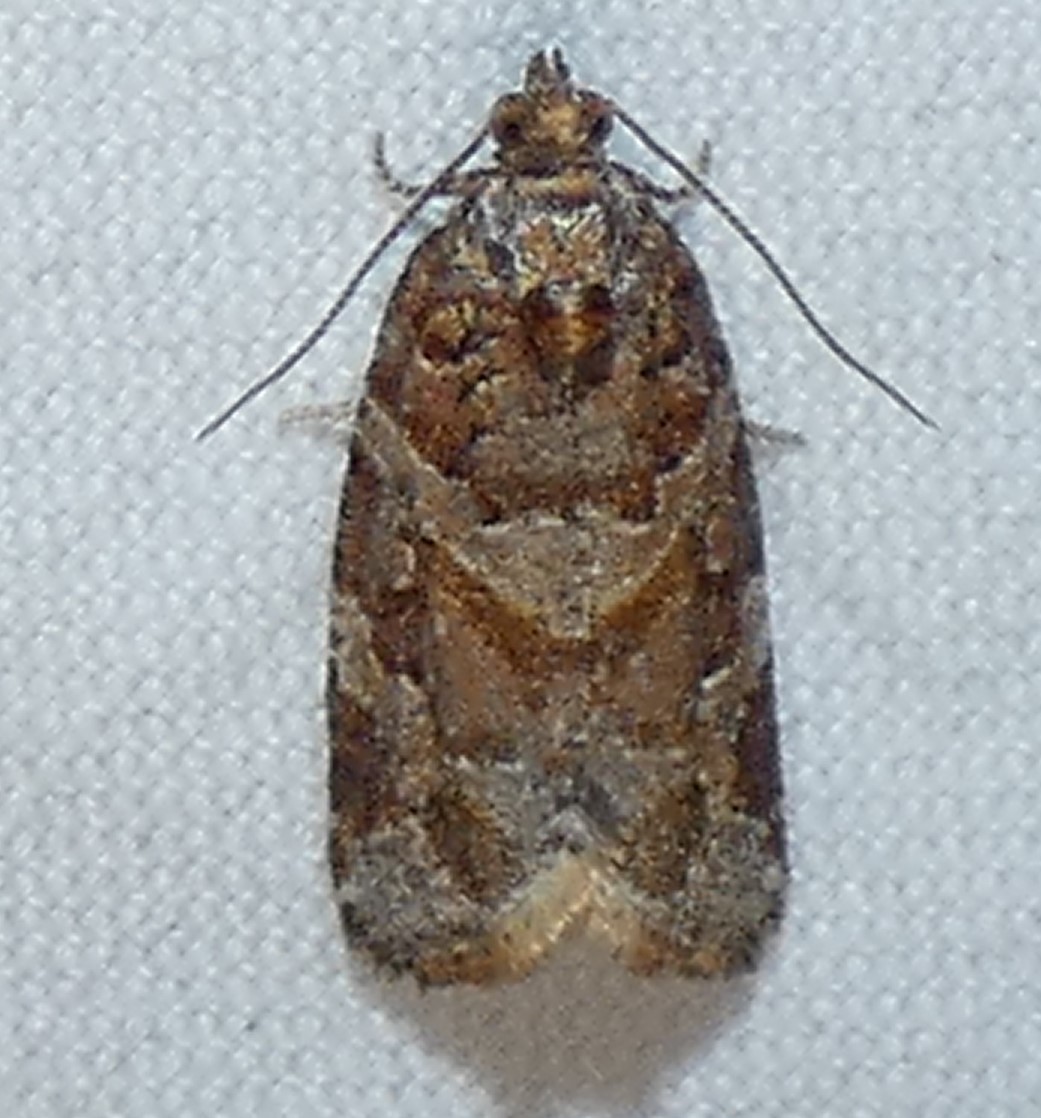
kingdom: Animalia
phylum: Arthropoda
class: Insecta
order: Lepidoptera
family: Tortricidae
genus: Argyrotaenia
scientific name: Argyrotaenia
